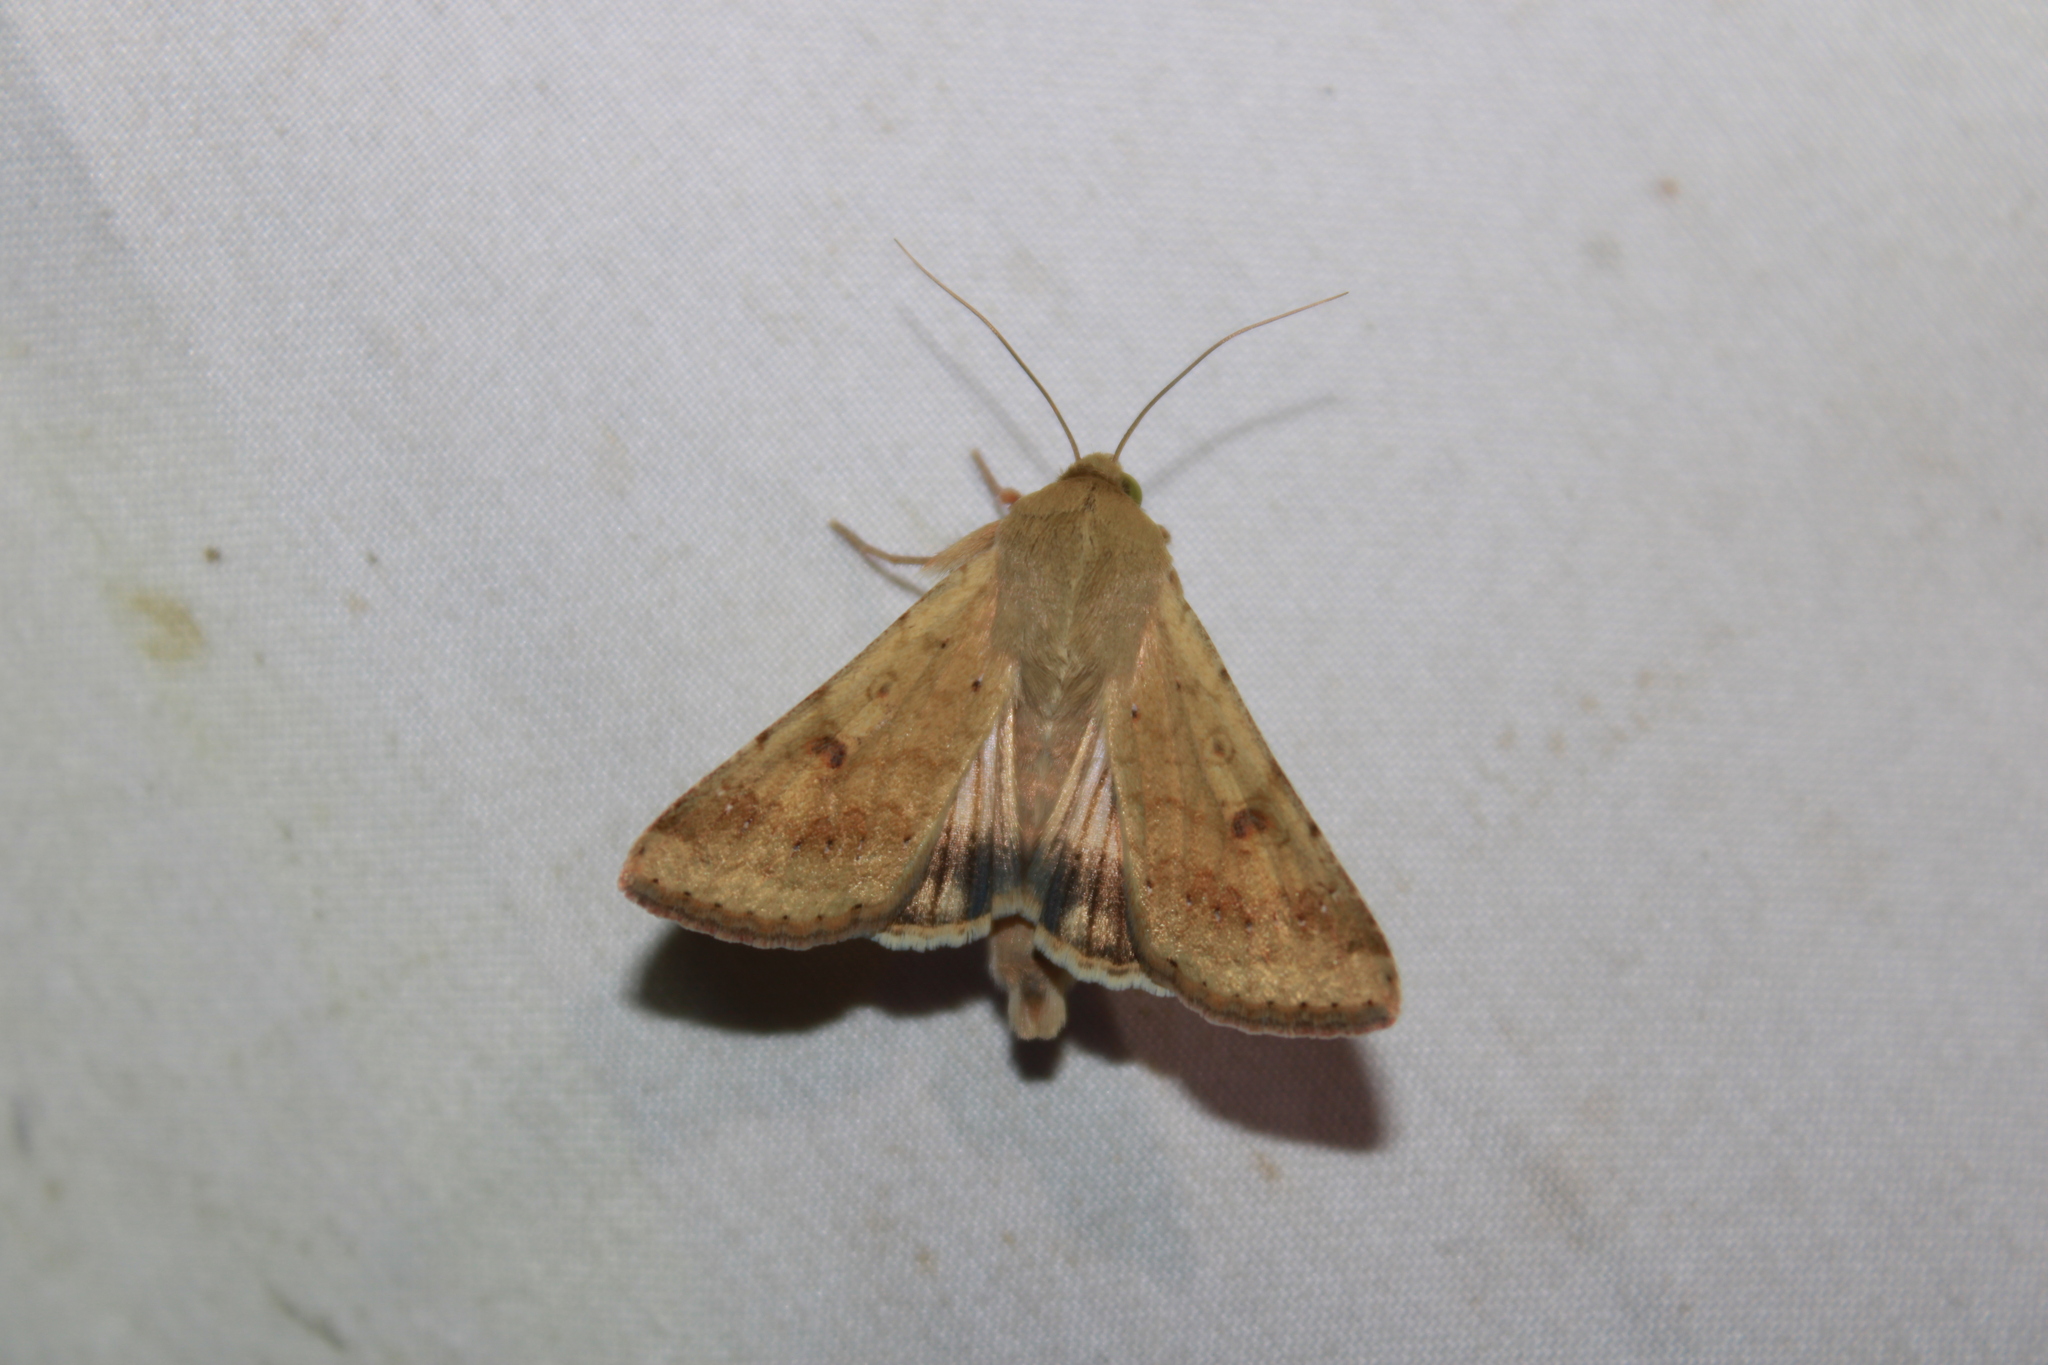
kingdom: Animalia
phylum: Arthropoda
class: Insecta
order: Lepidoptera
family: Noctuidae
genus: Helicoverpa
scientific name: Helicoverpa zea
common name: Bollworm
